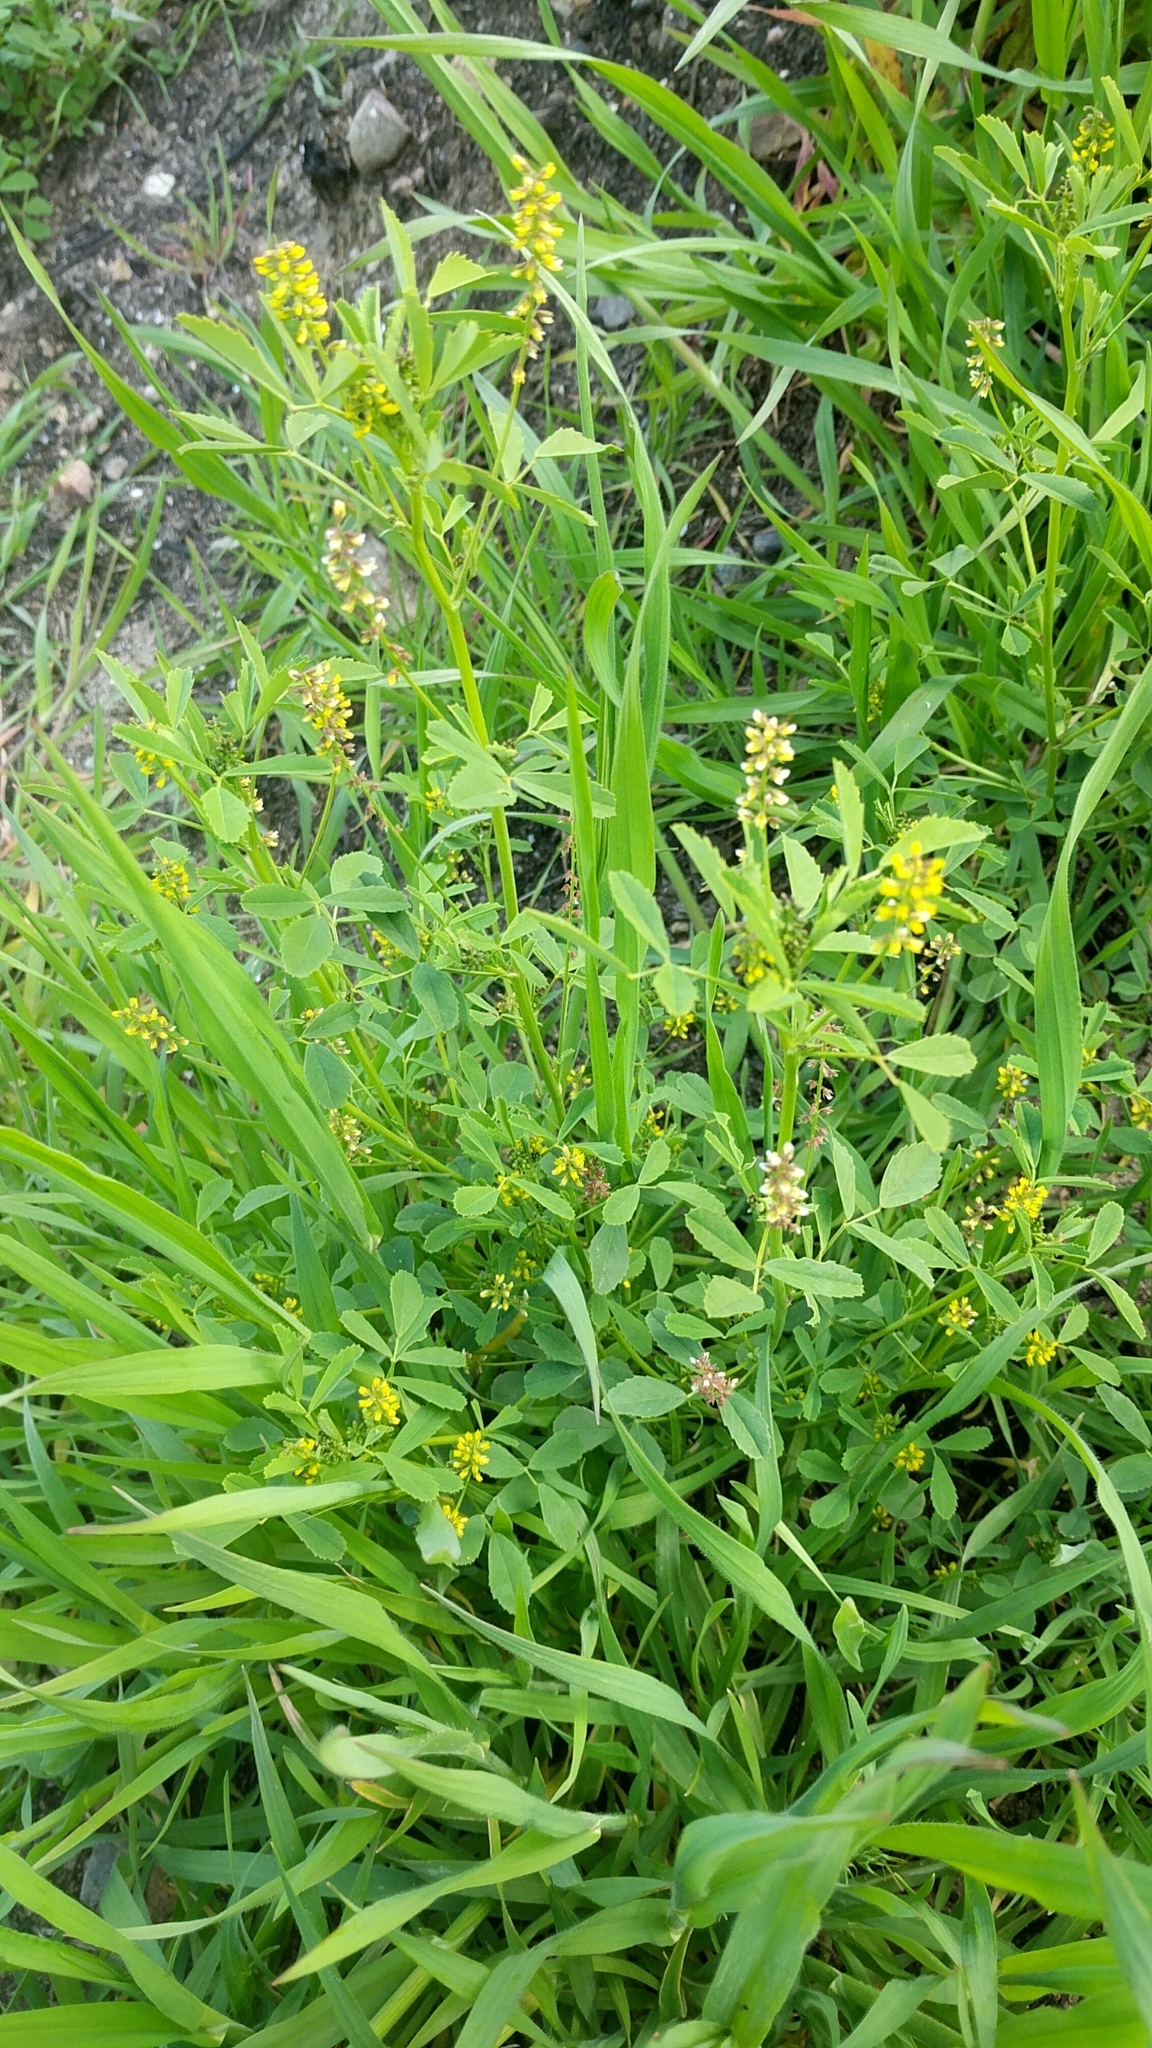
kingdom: Plantae
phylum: Tracheophyta
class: Magnoliopsida
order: Fabales
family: Fabaceae
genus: Melilotus
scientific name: Melilotus indicus
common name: Small melilot
